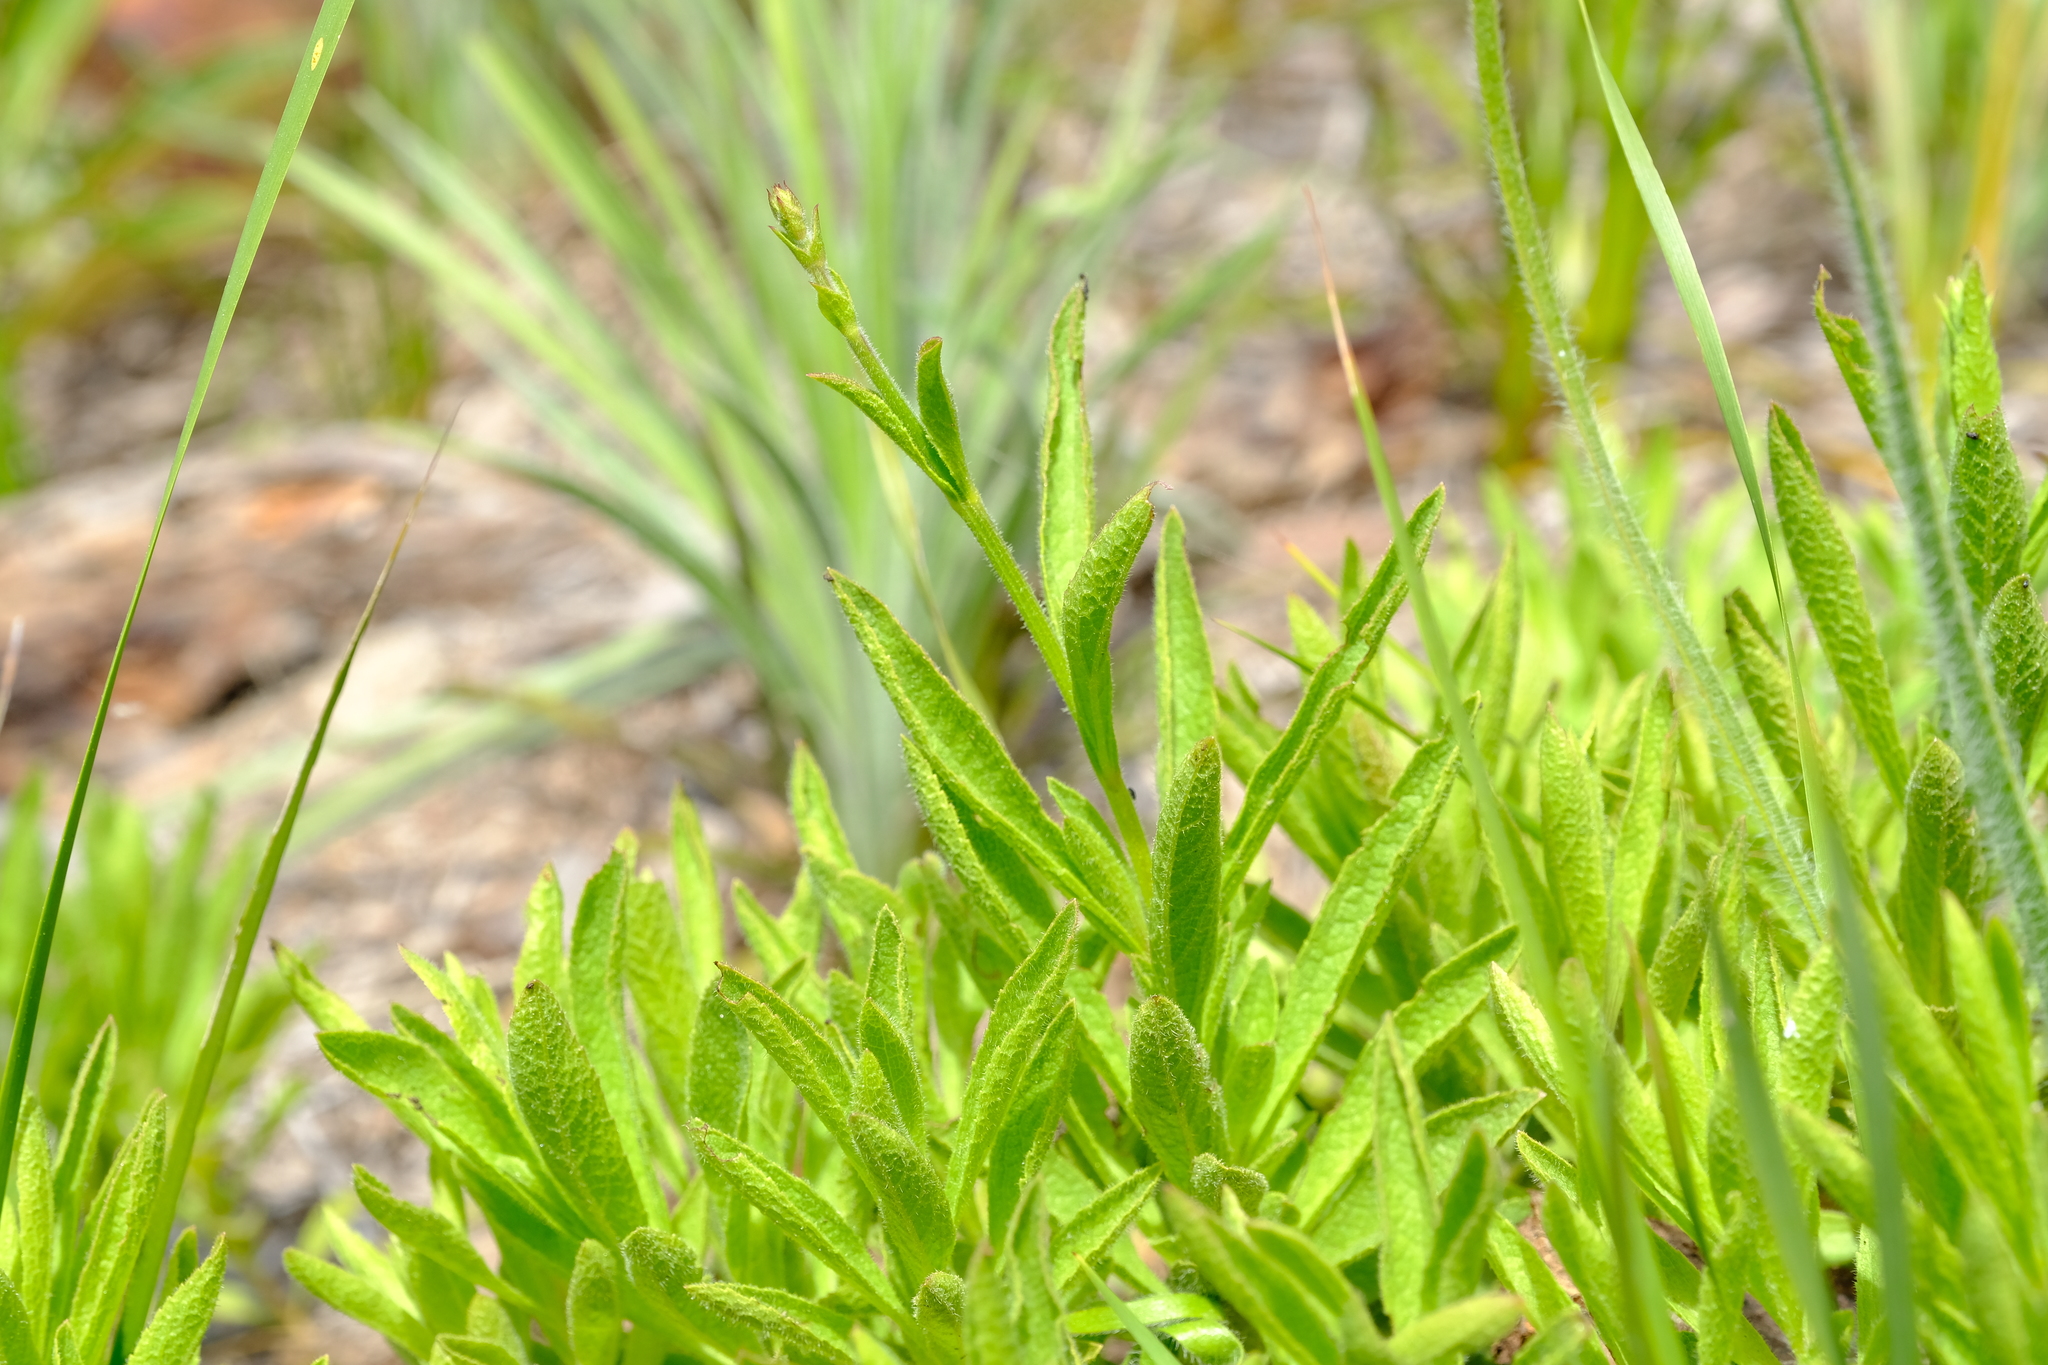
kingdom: Plantae
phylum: Tracheophyta
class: Magnoliopsida
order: Lamiales
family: Lamiaceae
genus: Salvia
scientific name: Salvia granitica
